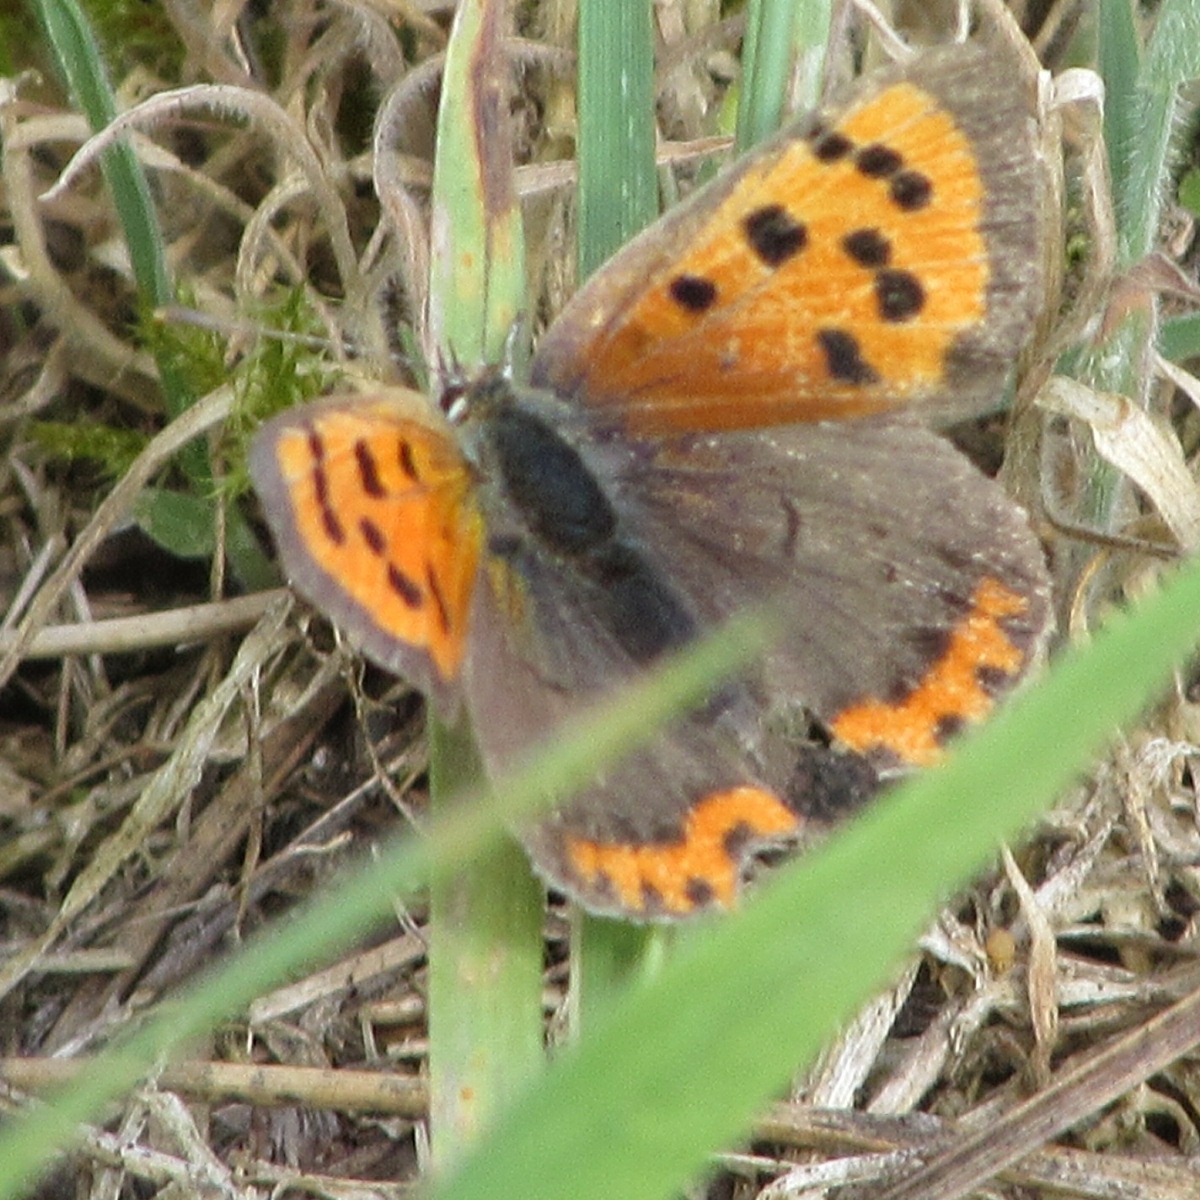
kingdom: Animalia
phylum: Arthropoda
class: Insecta
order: Lepidoptera
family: Lycaenidae
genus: Lycaena
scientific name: Lycaena phlaeas
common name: Small copper
